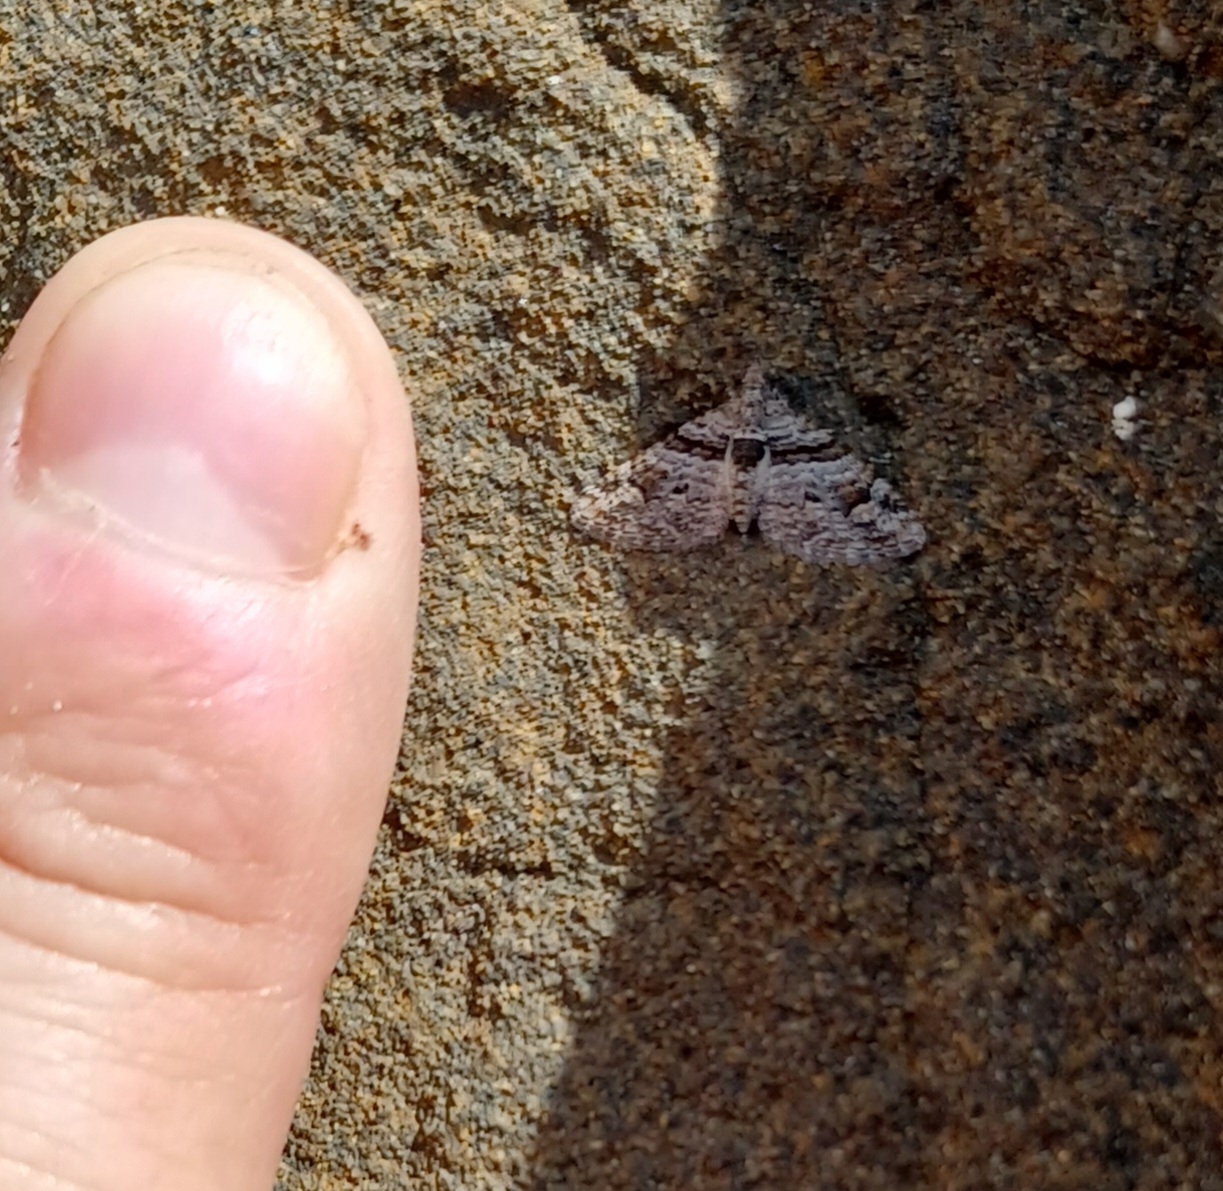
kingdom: Animalia
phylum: Arthropoda
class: Insecta
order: Lepidoptera
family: Geometridae
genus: Phrissogonus
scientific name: Phrissogonus laticostata
